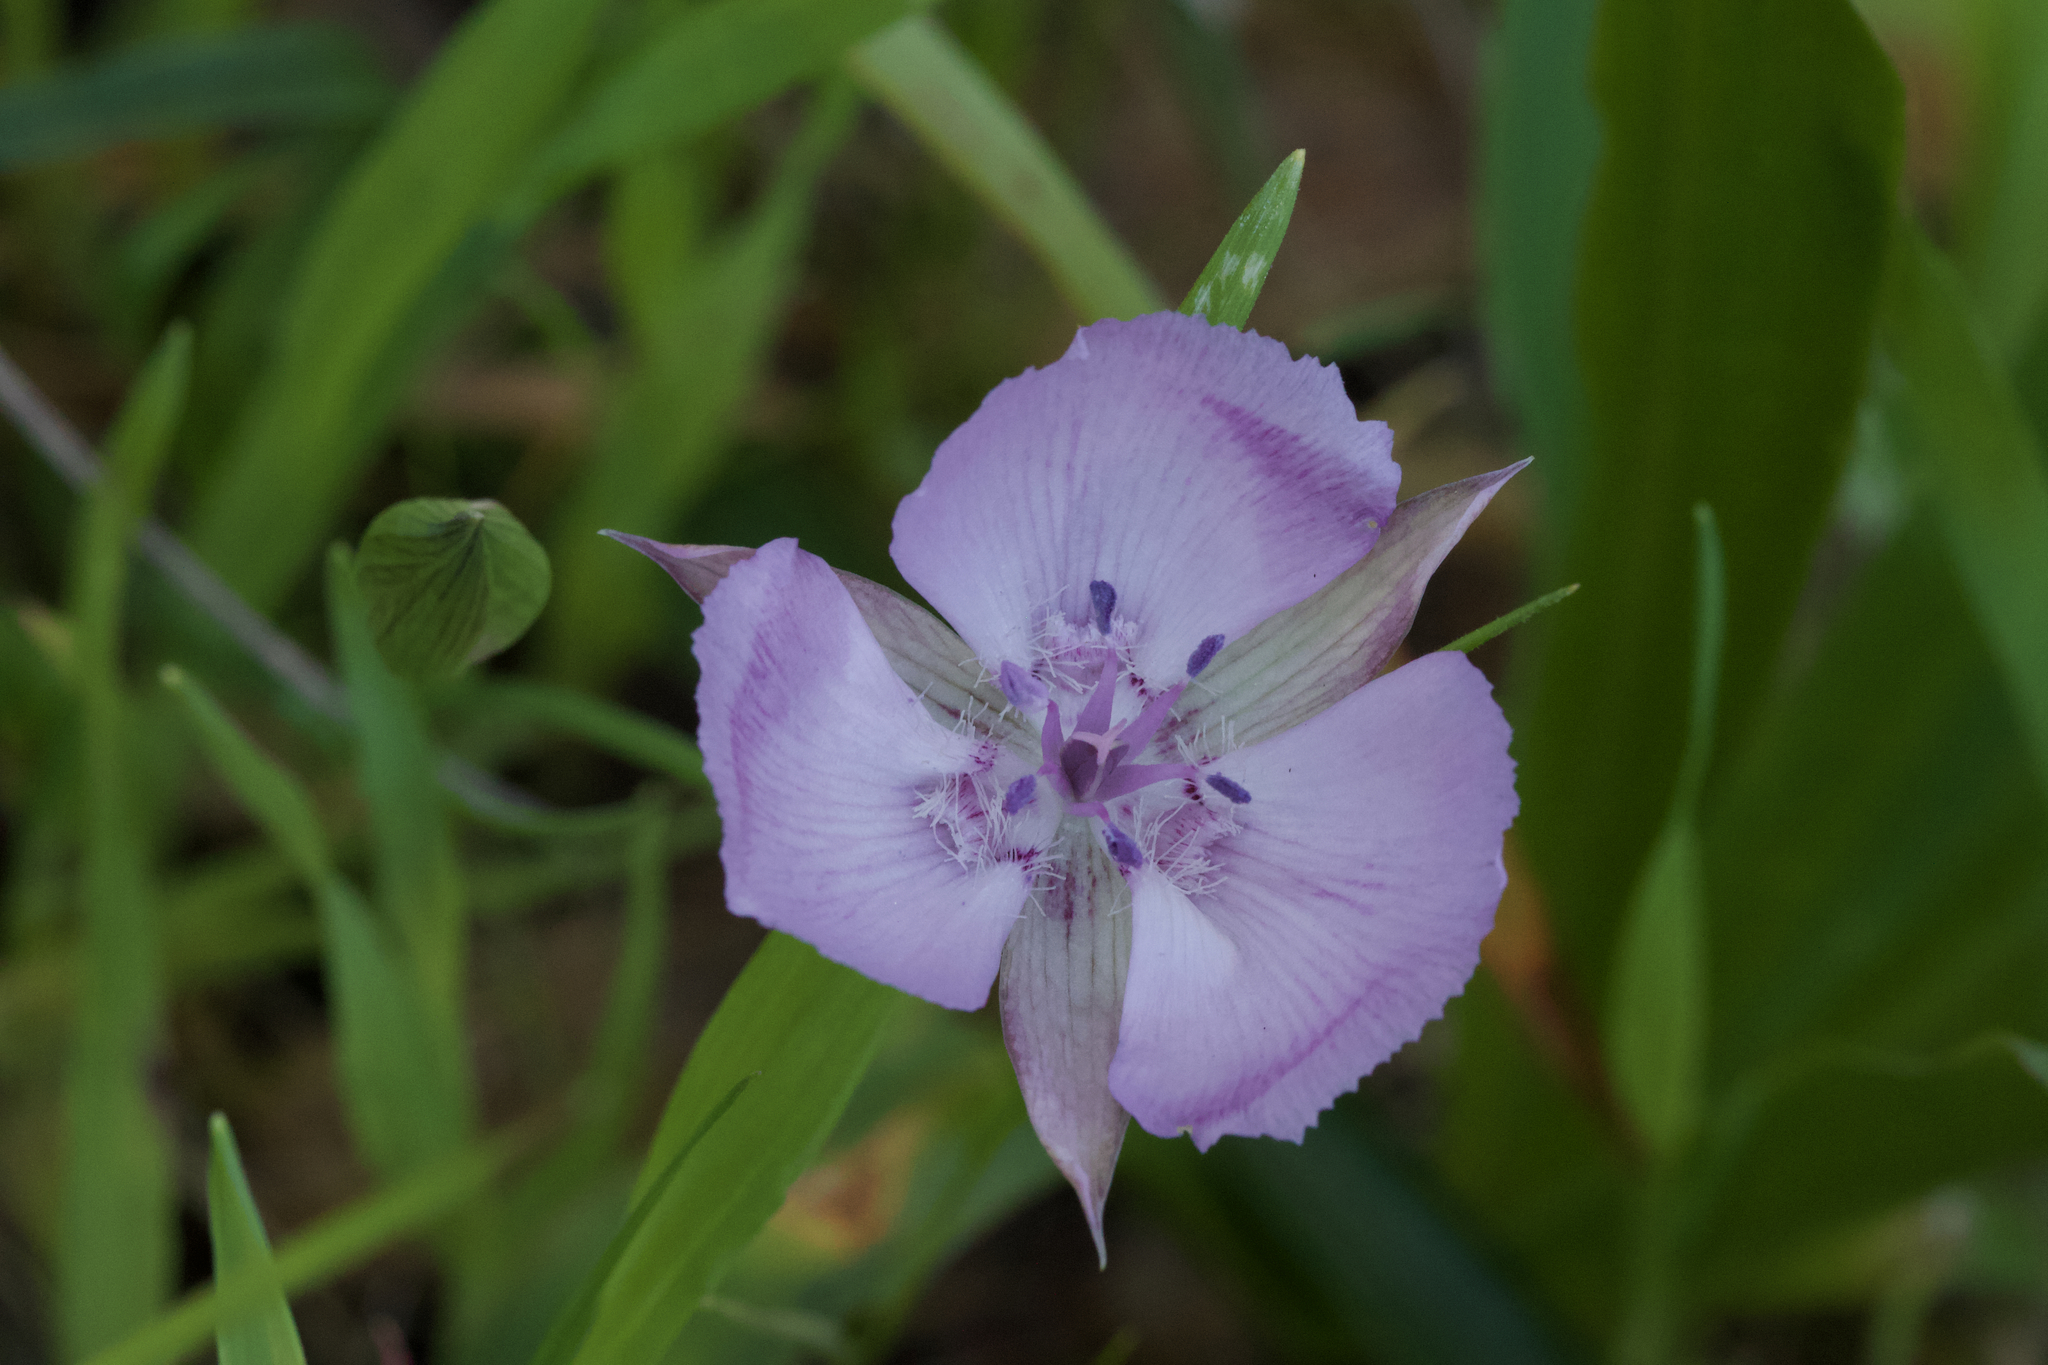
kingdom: Plantae
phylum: Tracheophyta
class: Liliopsida
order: Liliales
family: Liliaceae
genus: Calochortus
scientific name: Calochortus umbellatus
